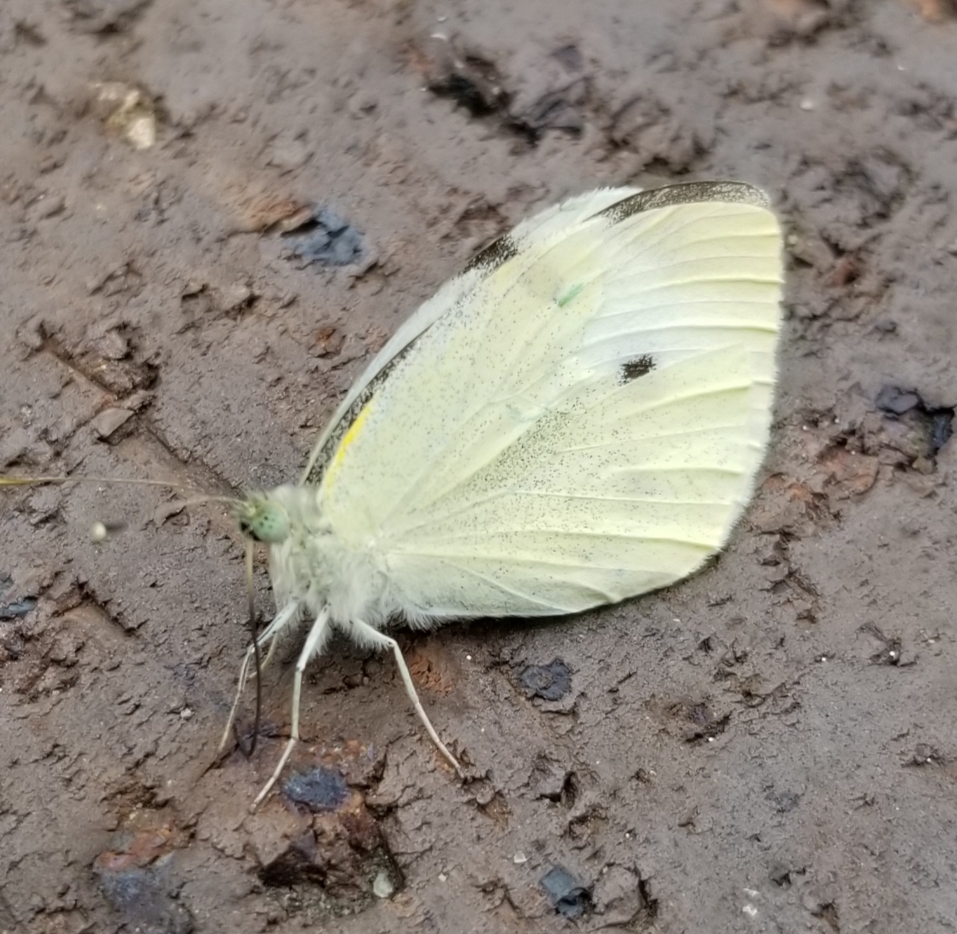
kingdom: Animalia
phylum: Arthropoda
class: Insecta
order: Lepidoptera
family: Pieridae
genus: Pieris
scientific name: Pieris rapae
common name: Small white
